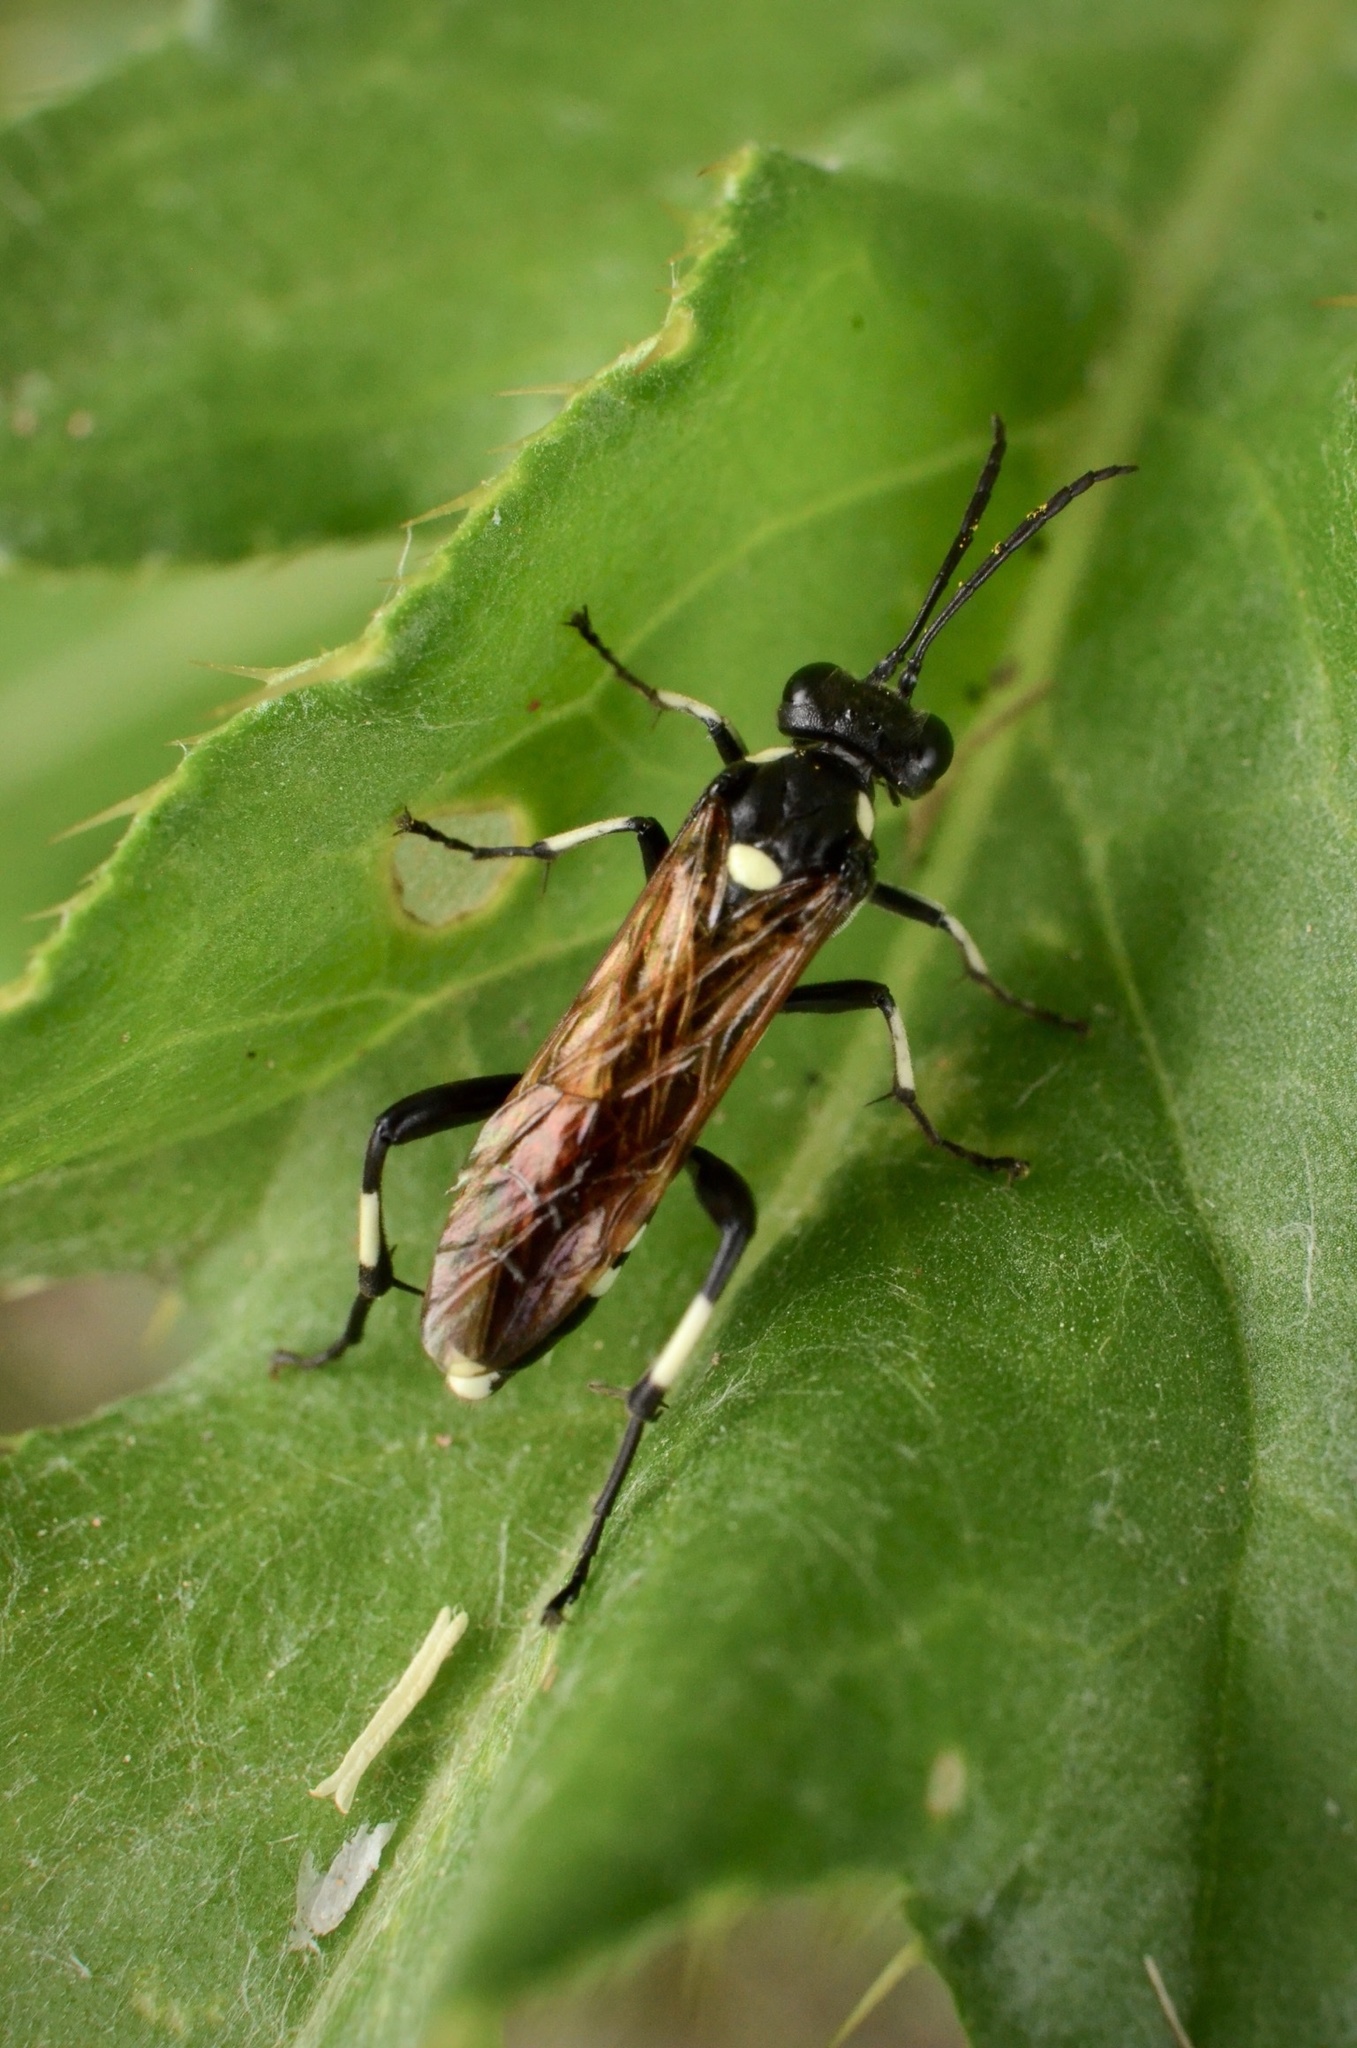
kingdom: Animalia
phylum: Arthropoda
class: Insecta
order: Hymenoptera
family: Tenthredinidae
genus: Macrophya
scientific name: Macrophya duodecimpunctata
